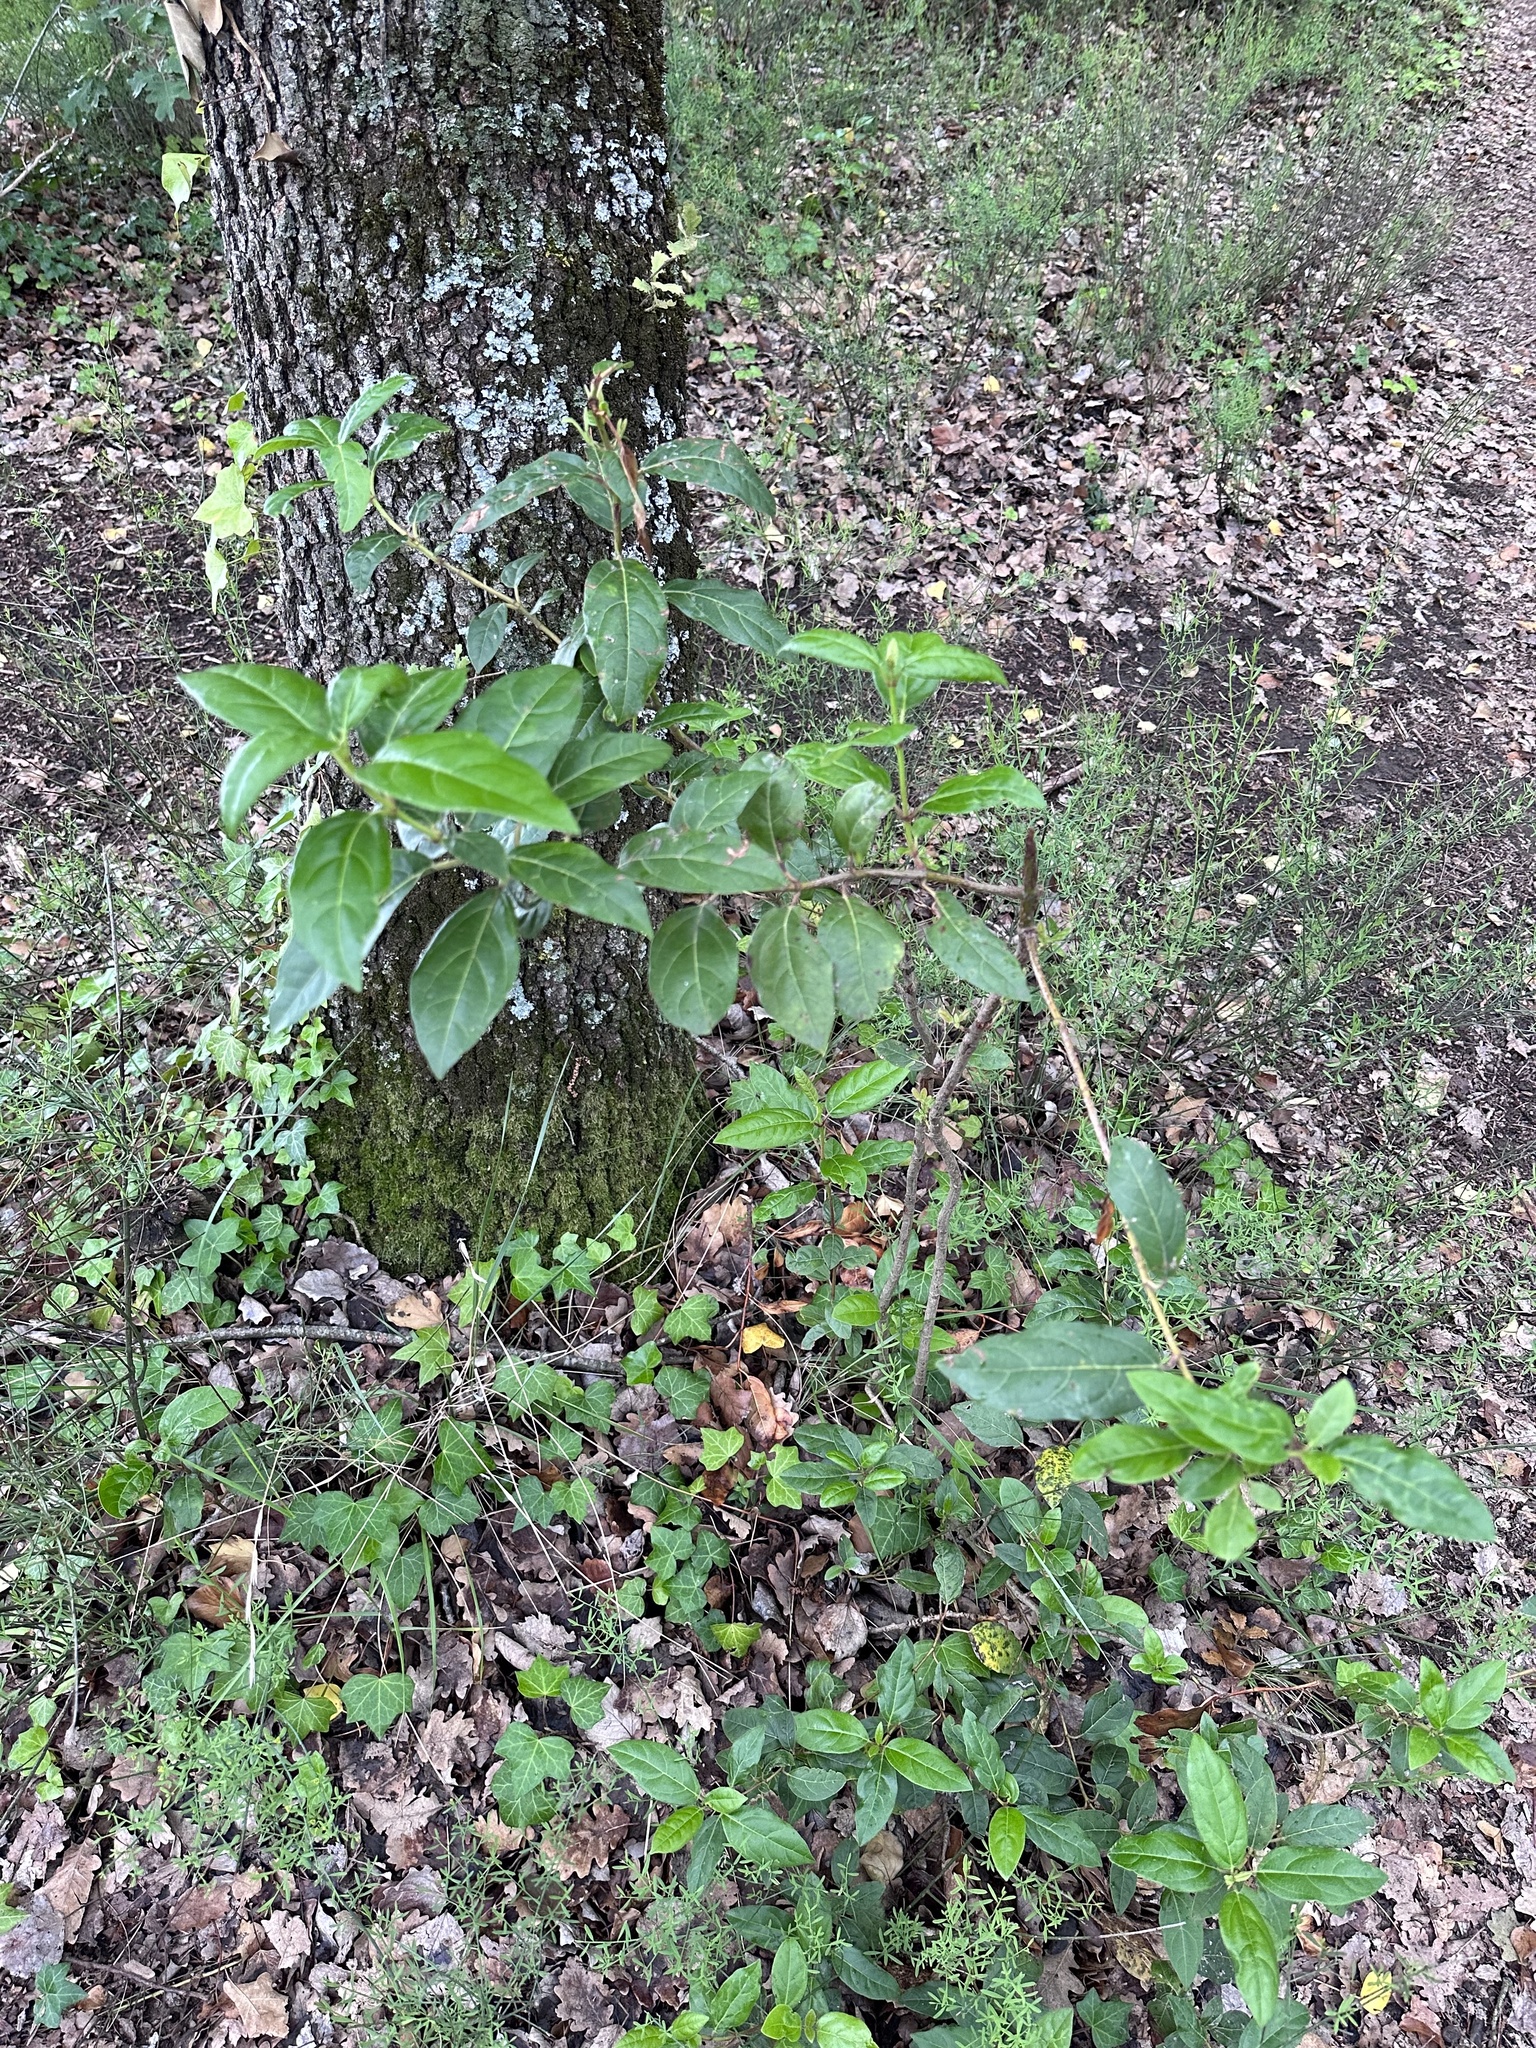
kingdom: Plantae
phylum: Tracheophyta
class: Magnoliopsida
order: Dipsacales
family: Viburnaceae
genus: Viburnum
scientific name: Viburnum tinus
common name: Laurustinus
